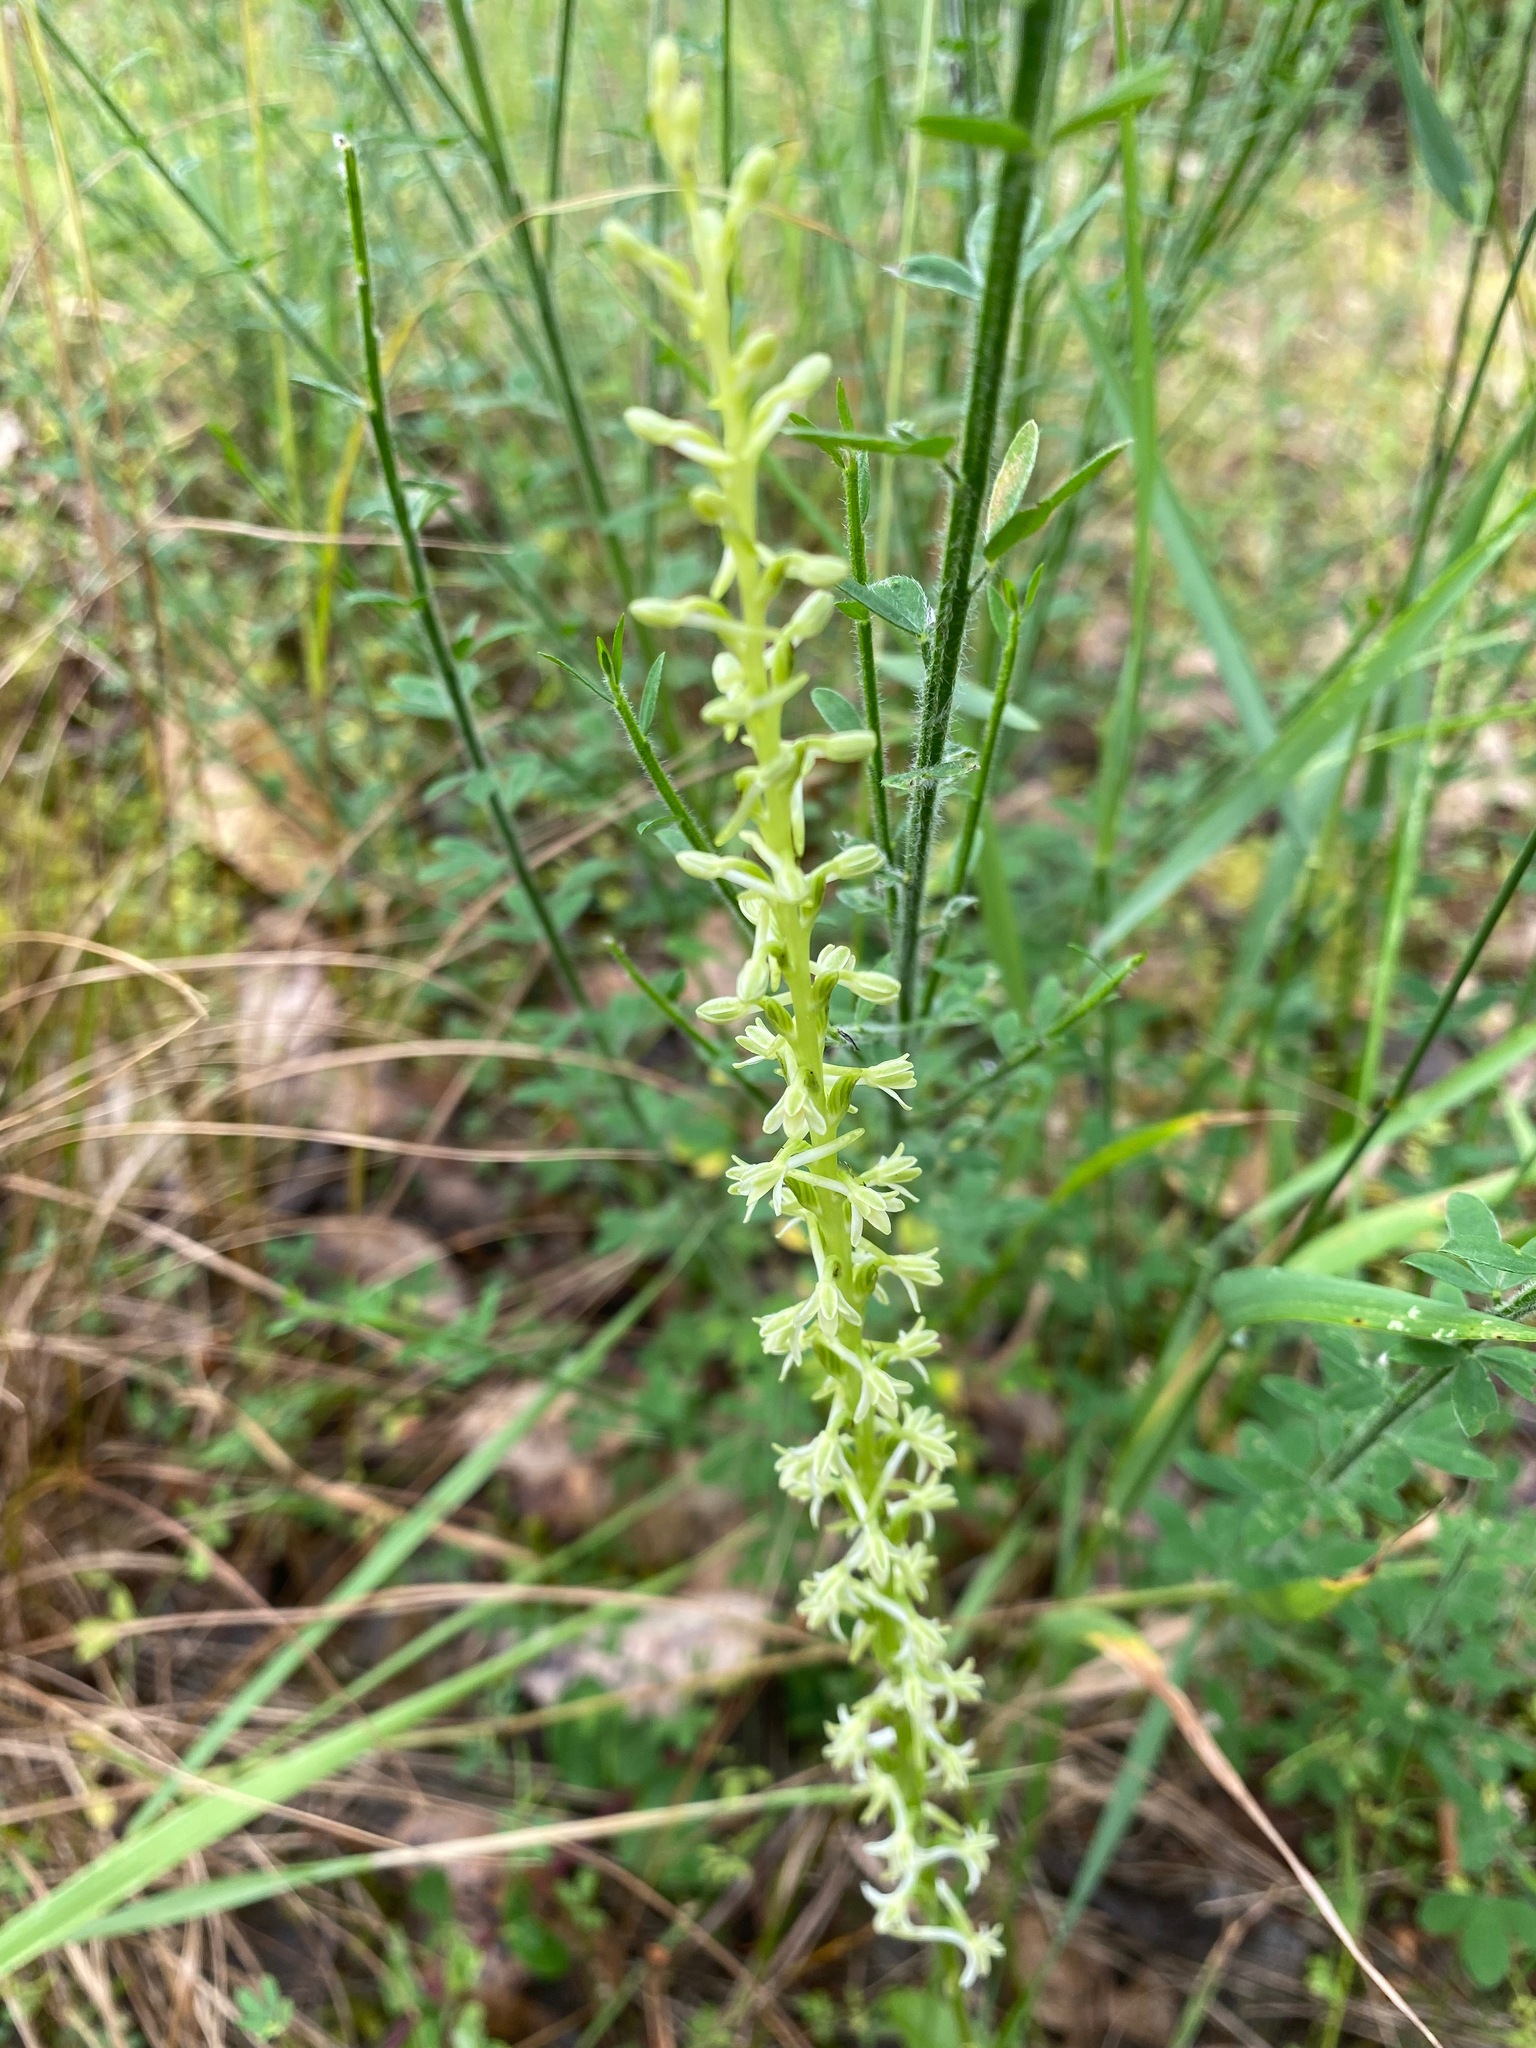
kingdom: Plantae
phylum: Tracheophyta
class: Liliopsida
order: Asparagales
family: Orchidaceae
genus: Platanthera
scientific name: Platanthera transversa
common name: Royal rein orchid
